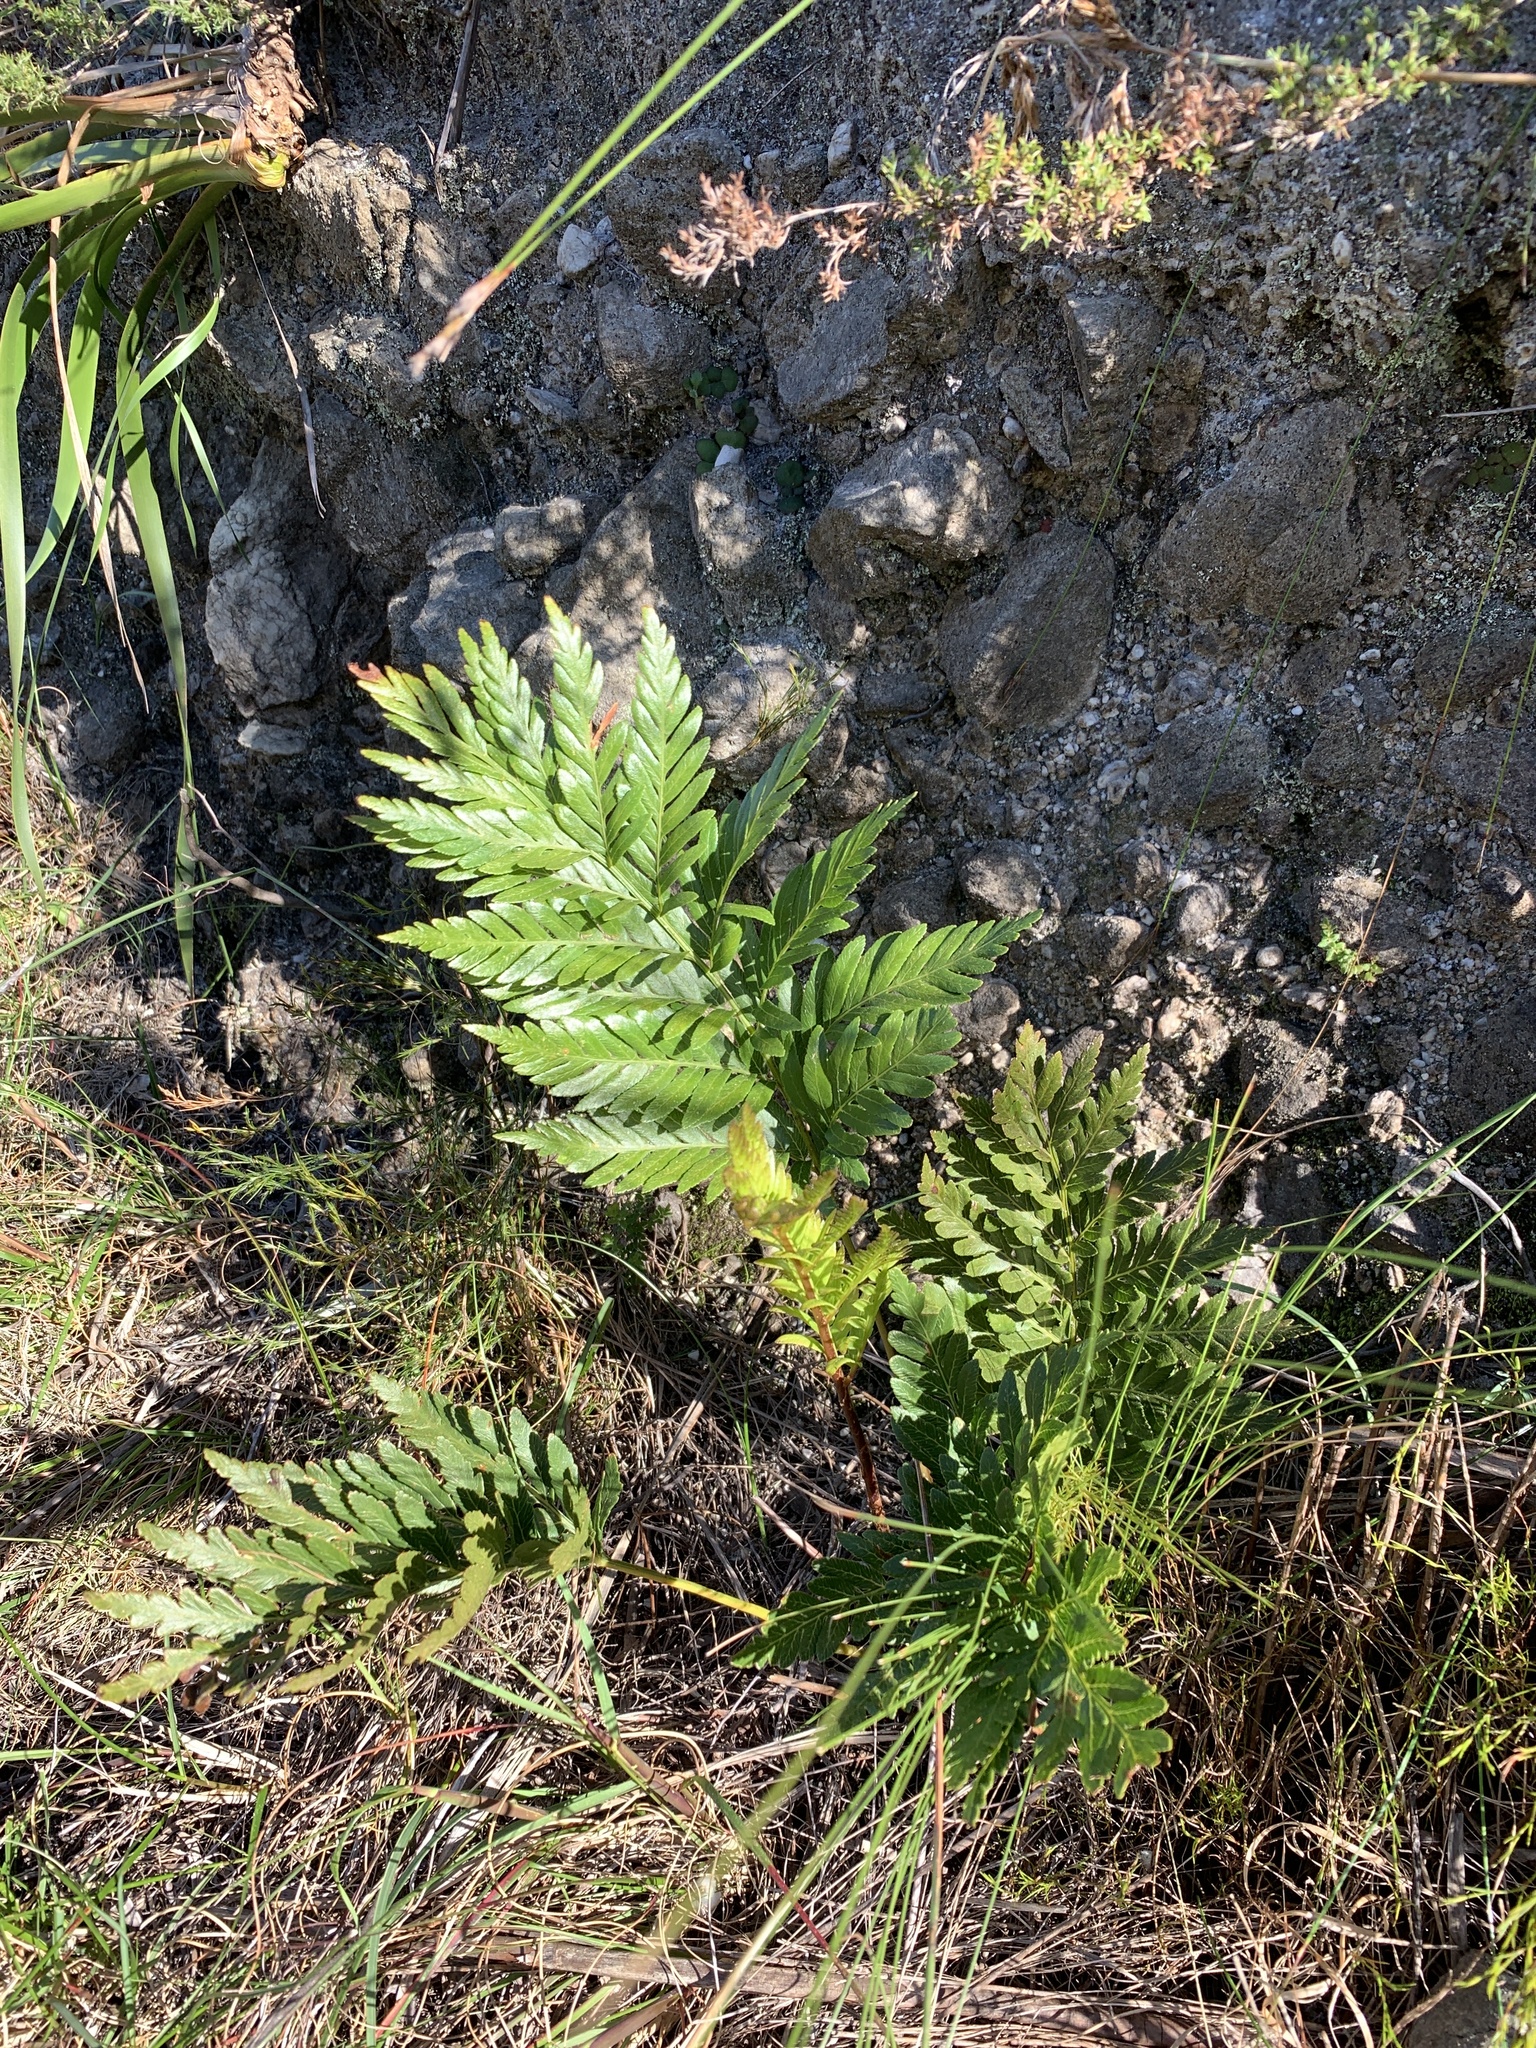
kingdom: Plantae
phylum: Tracheophyta
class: Polypodiopsida
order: Osmundales
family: Osmundaceae
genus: Todea
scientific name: Todea barbara
